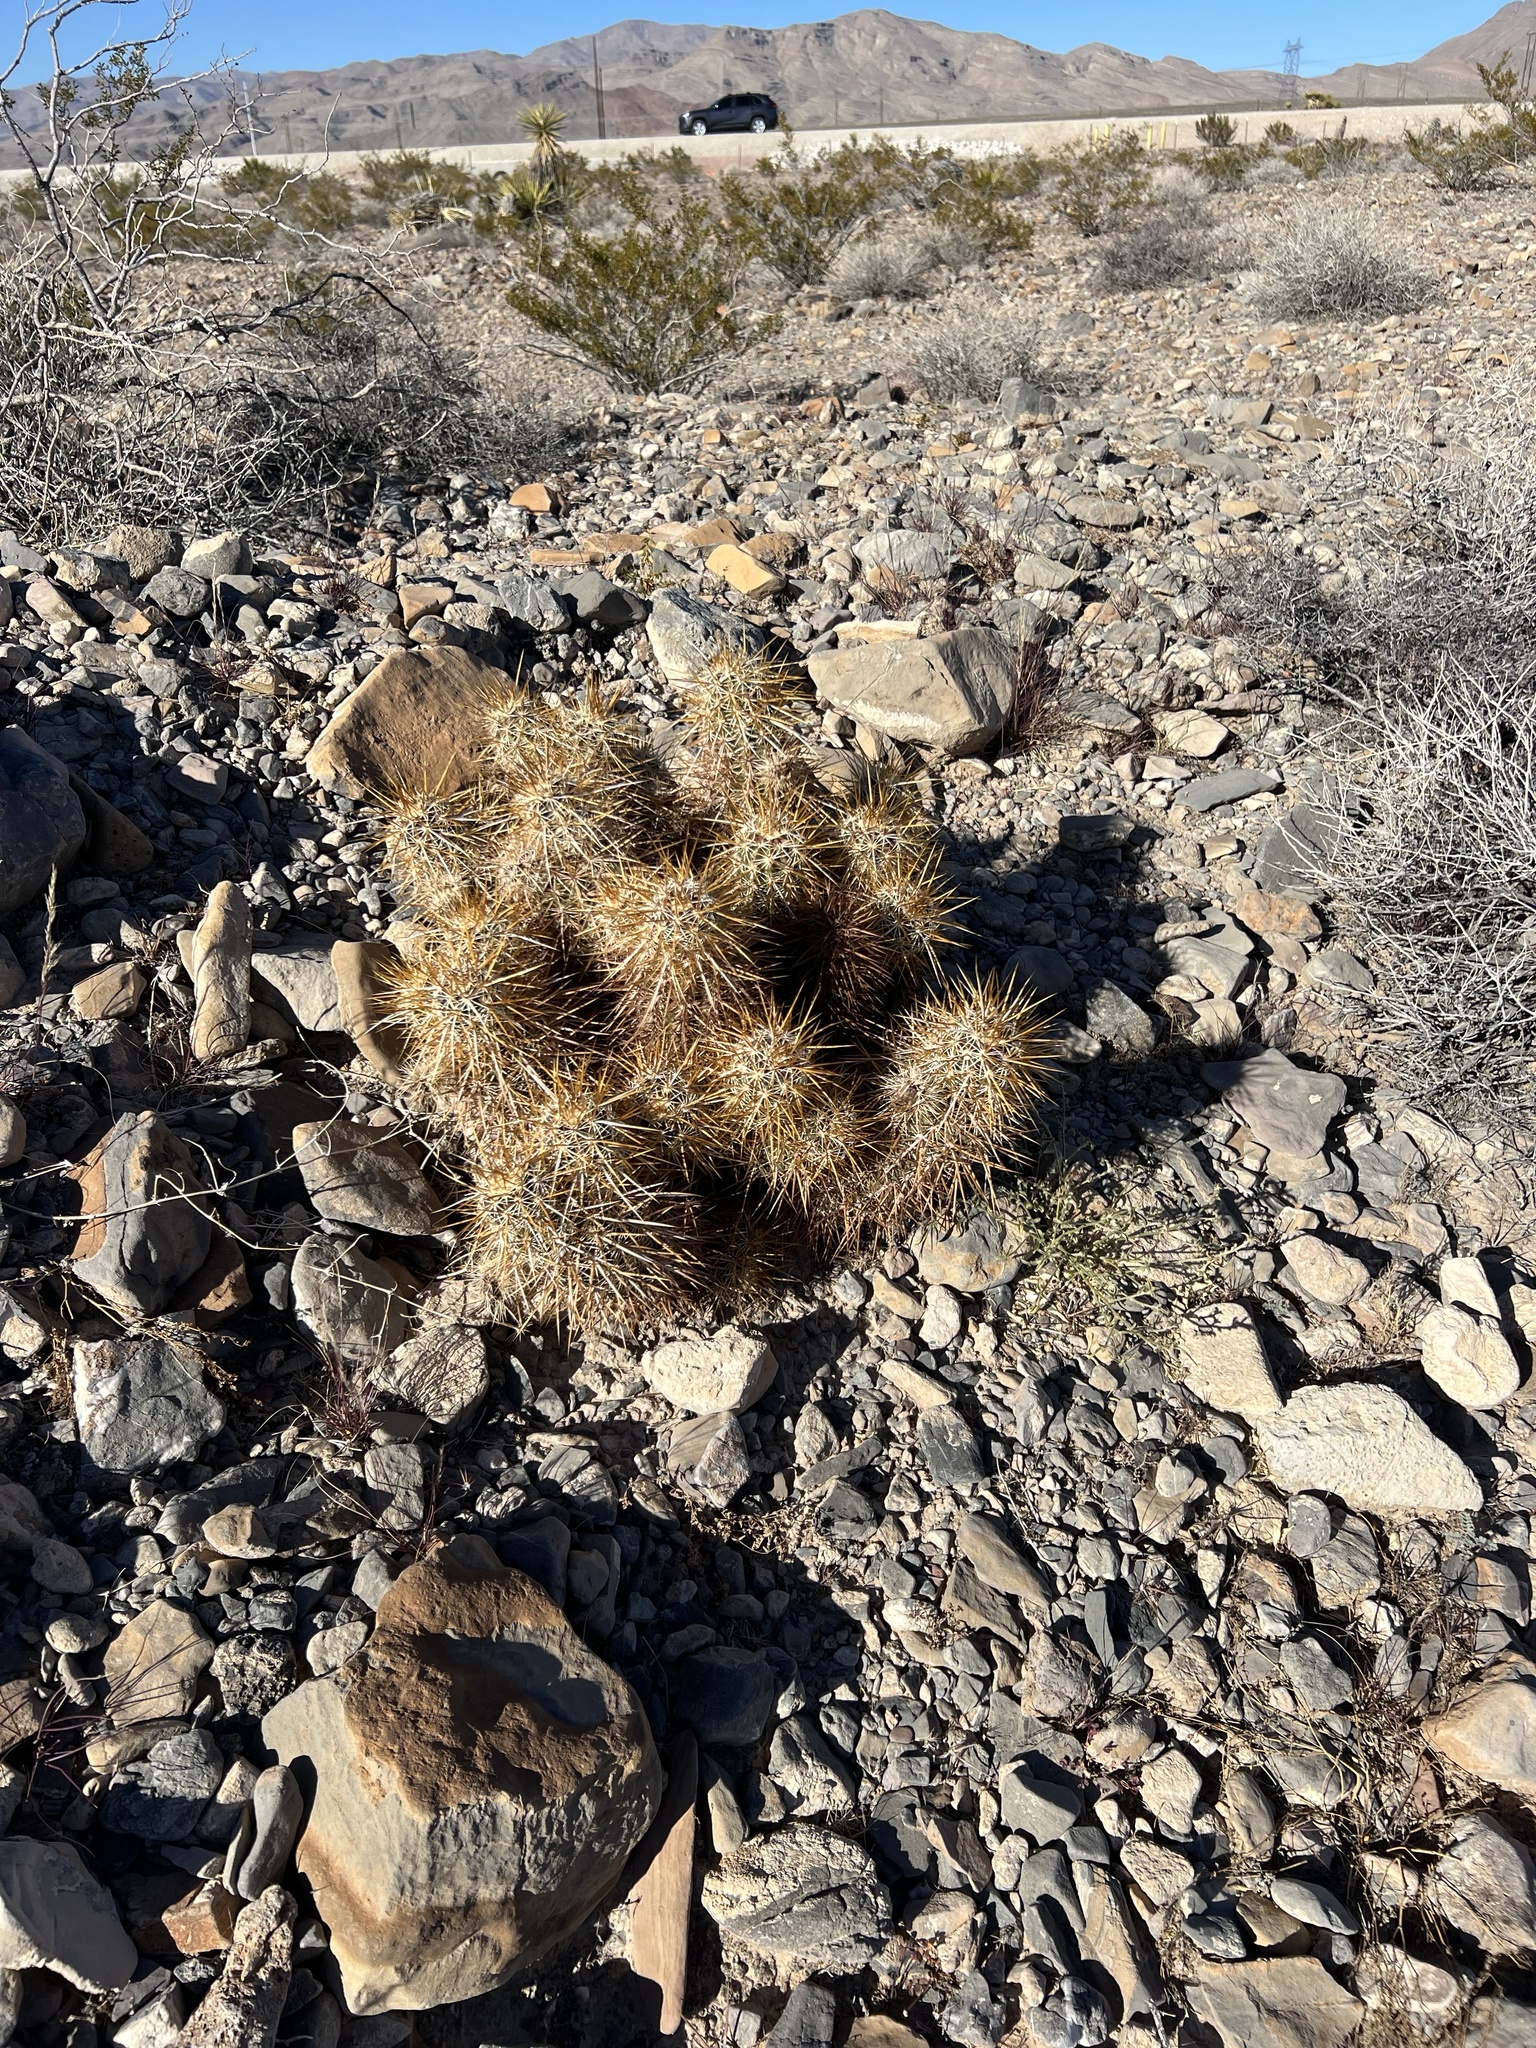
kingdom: Plantae
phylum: Tracheophyta
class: Magnoliopsida
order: Caryophyllales
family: Cactaceae
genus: Echinocereus
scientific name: Echinocereus engelmannii
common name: Engelmann's hedgehog cactus
